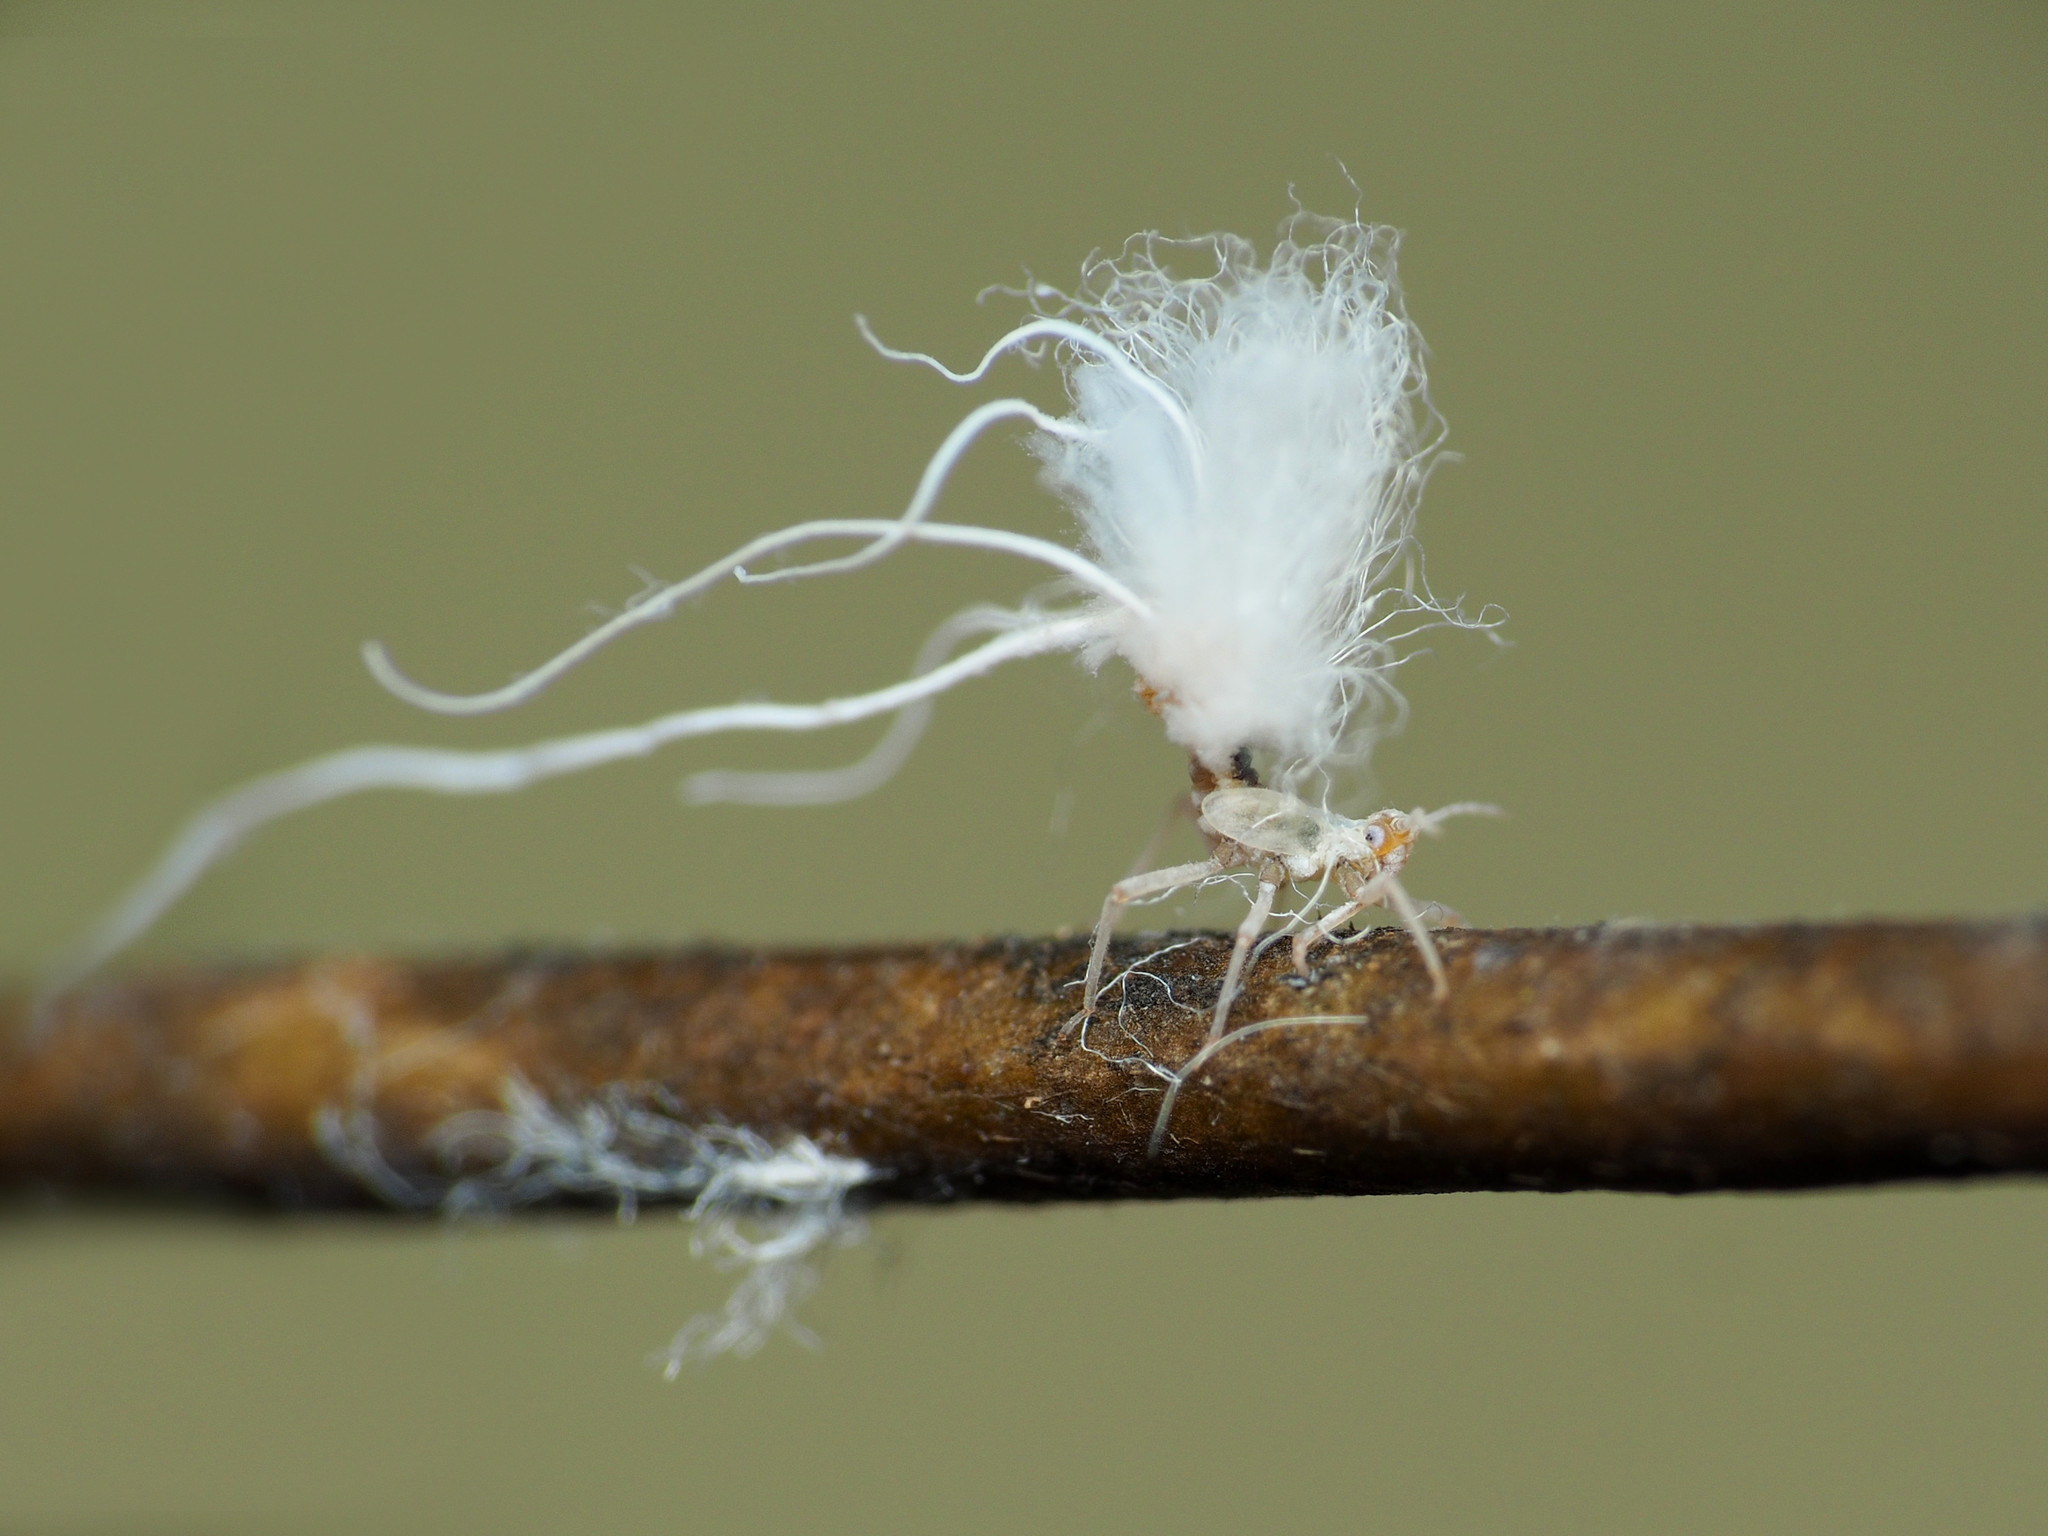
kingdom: Animalia
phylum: Arthropoda
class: Insecta
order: Hemiptera
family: Aphididae
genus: Grylloprociphilus
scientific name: Grylloprociphilus imbricator
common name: Beech blight aphid
